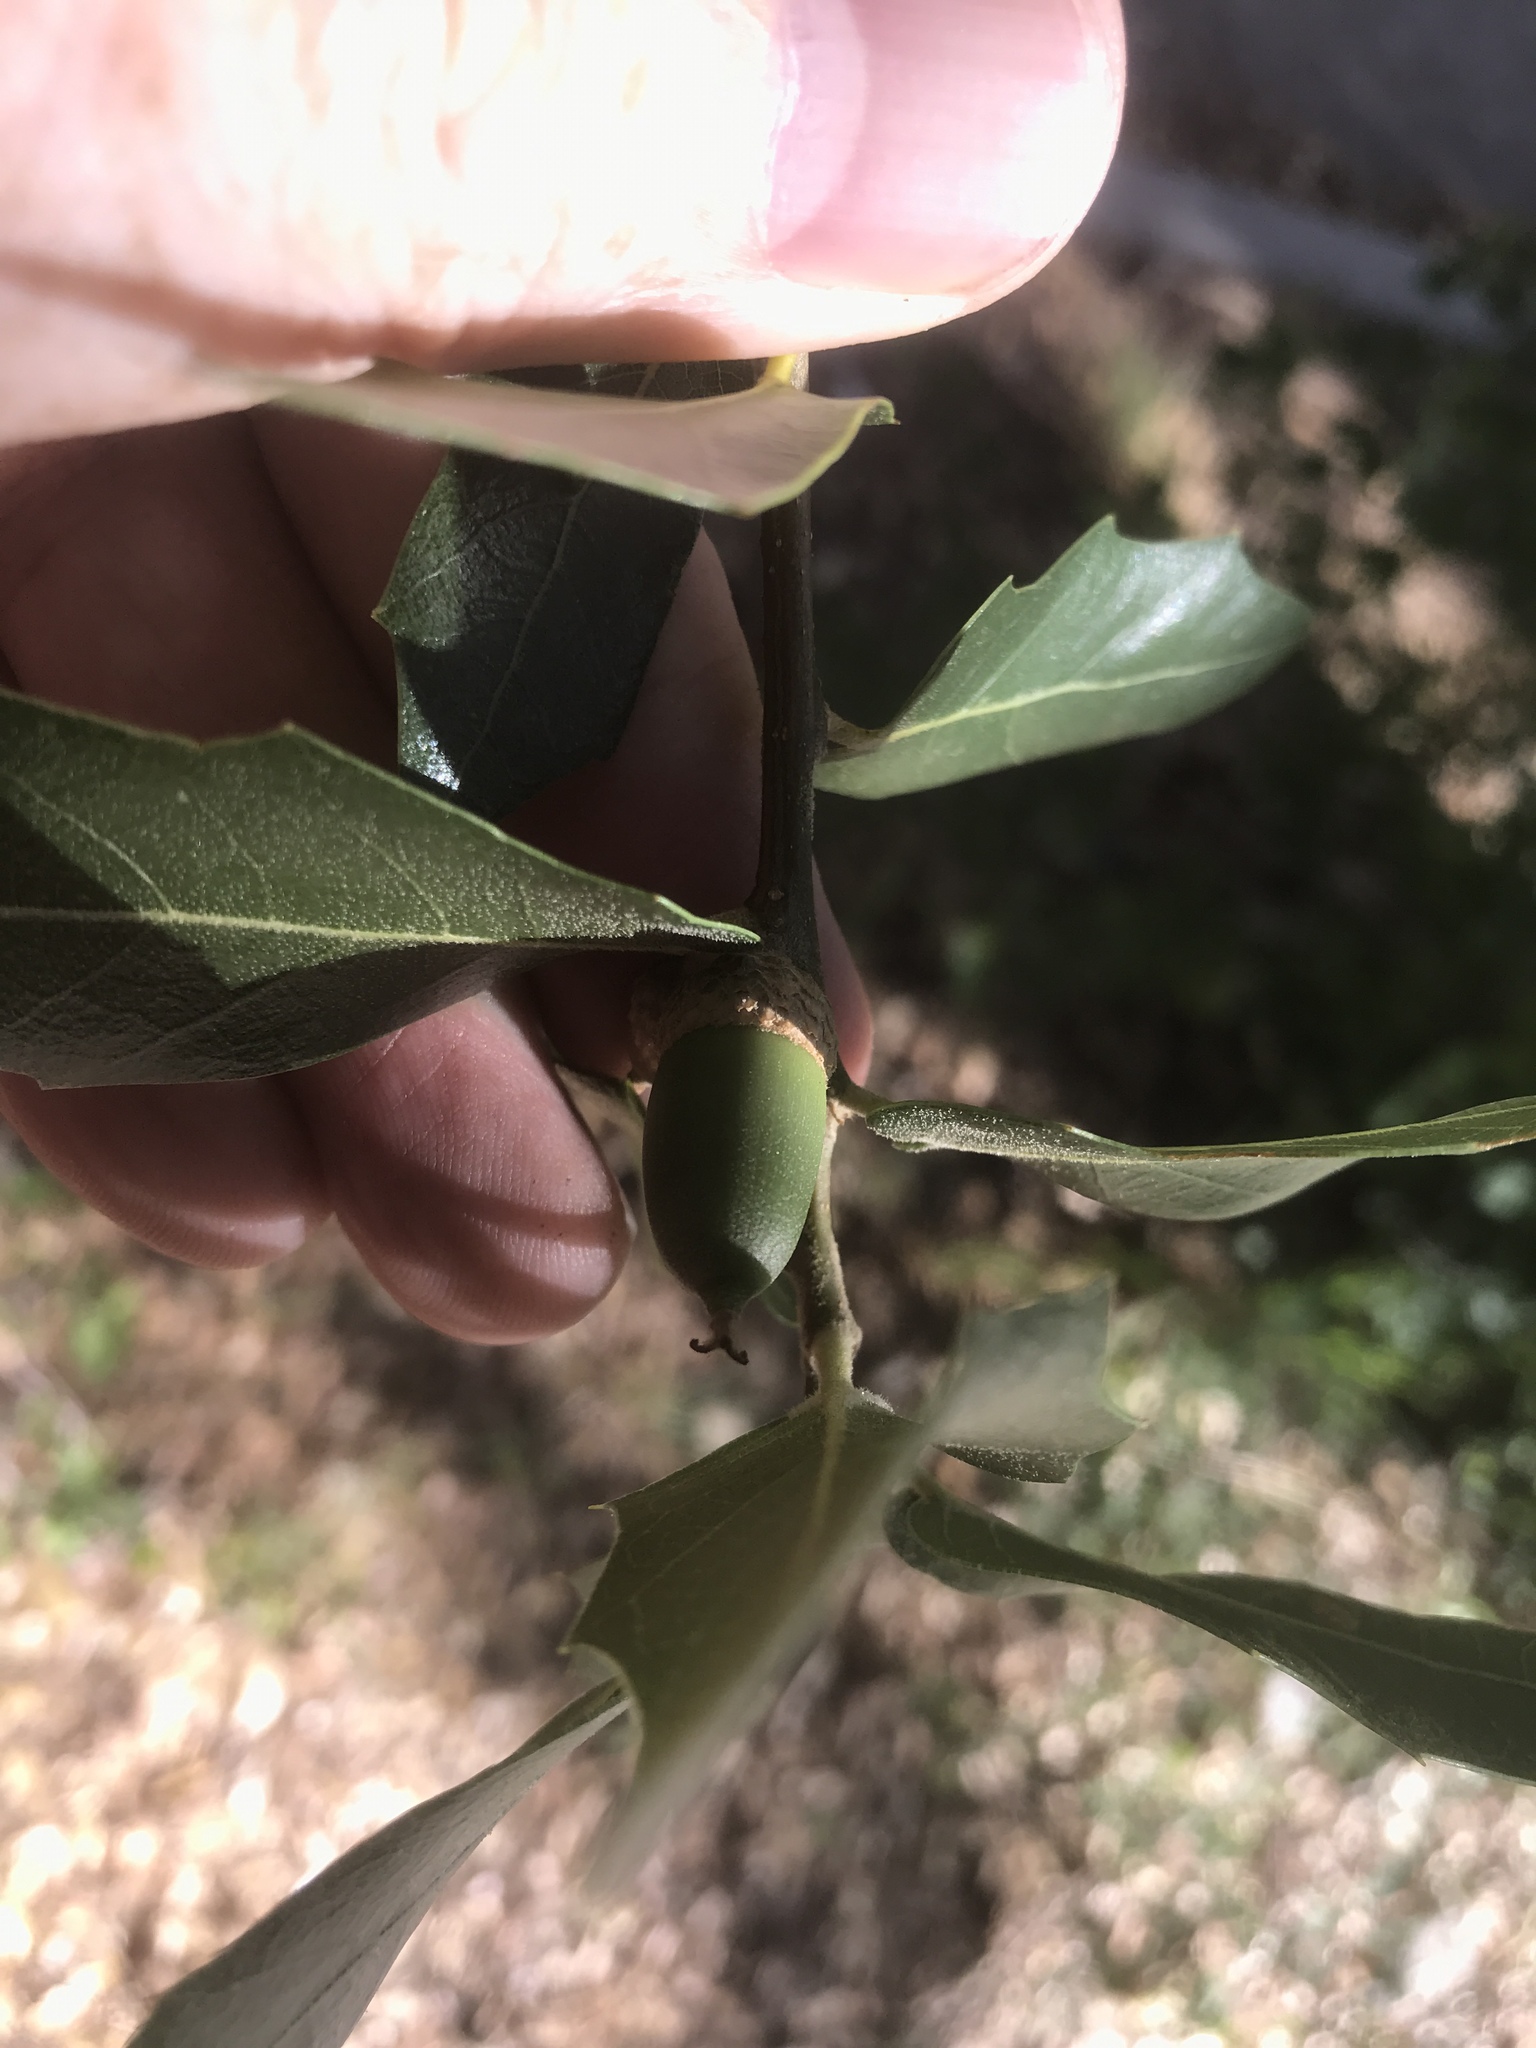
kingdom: Plantae
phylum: Tracheophyta
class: Magnoliopsida
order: Fagales
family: Fagaceae
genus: Quercus
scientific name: Quercus emoryi
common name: Emory oak
